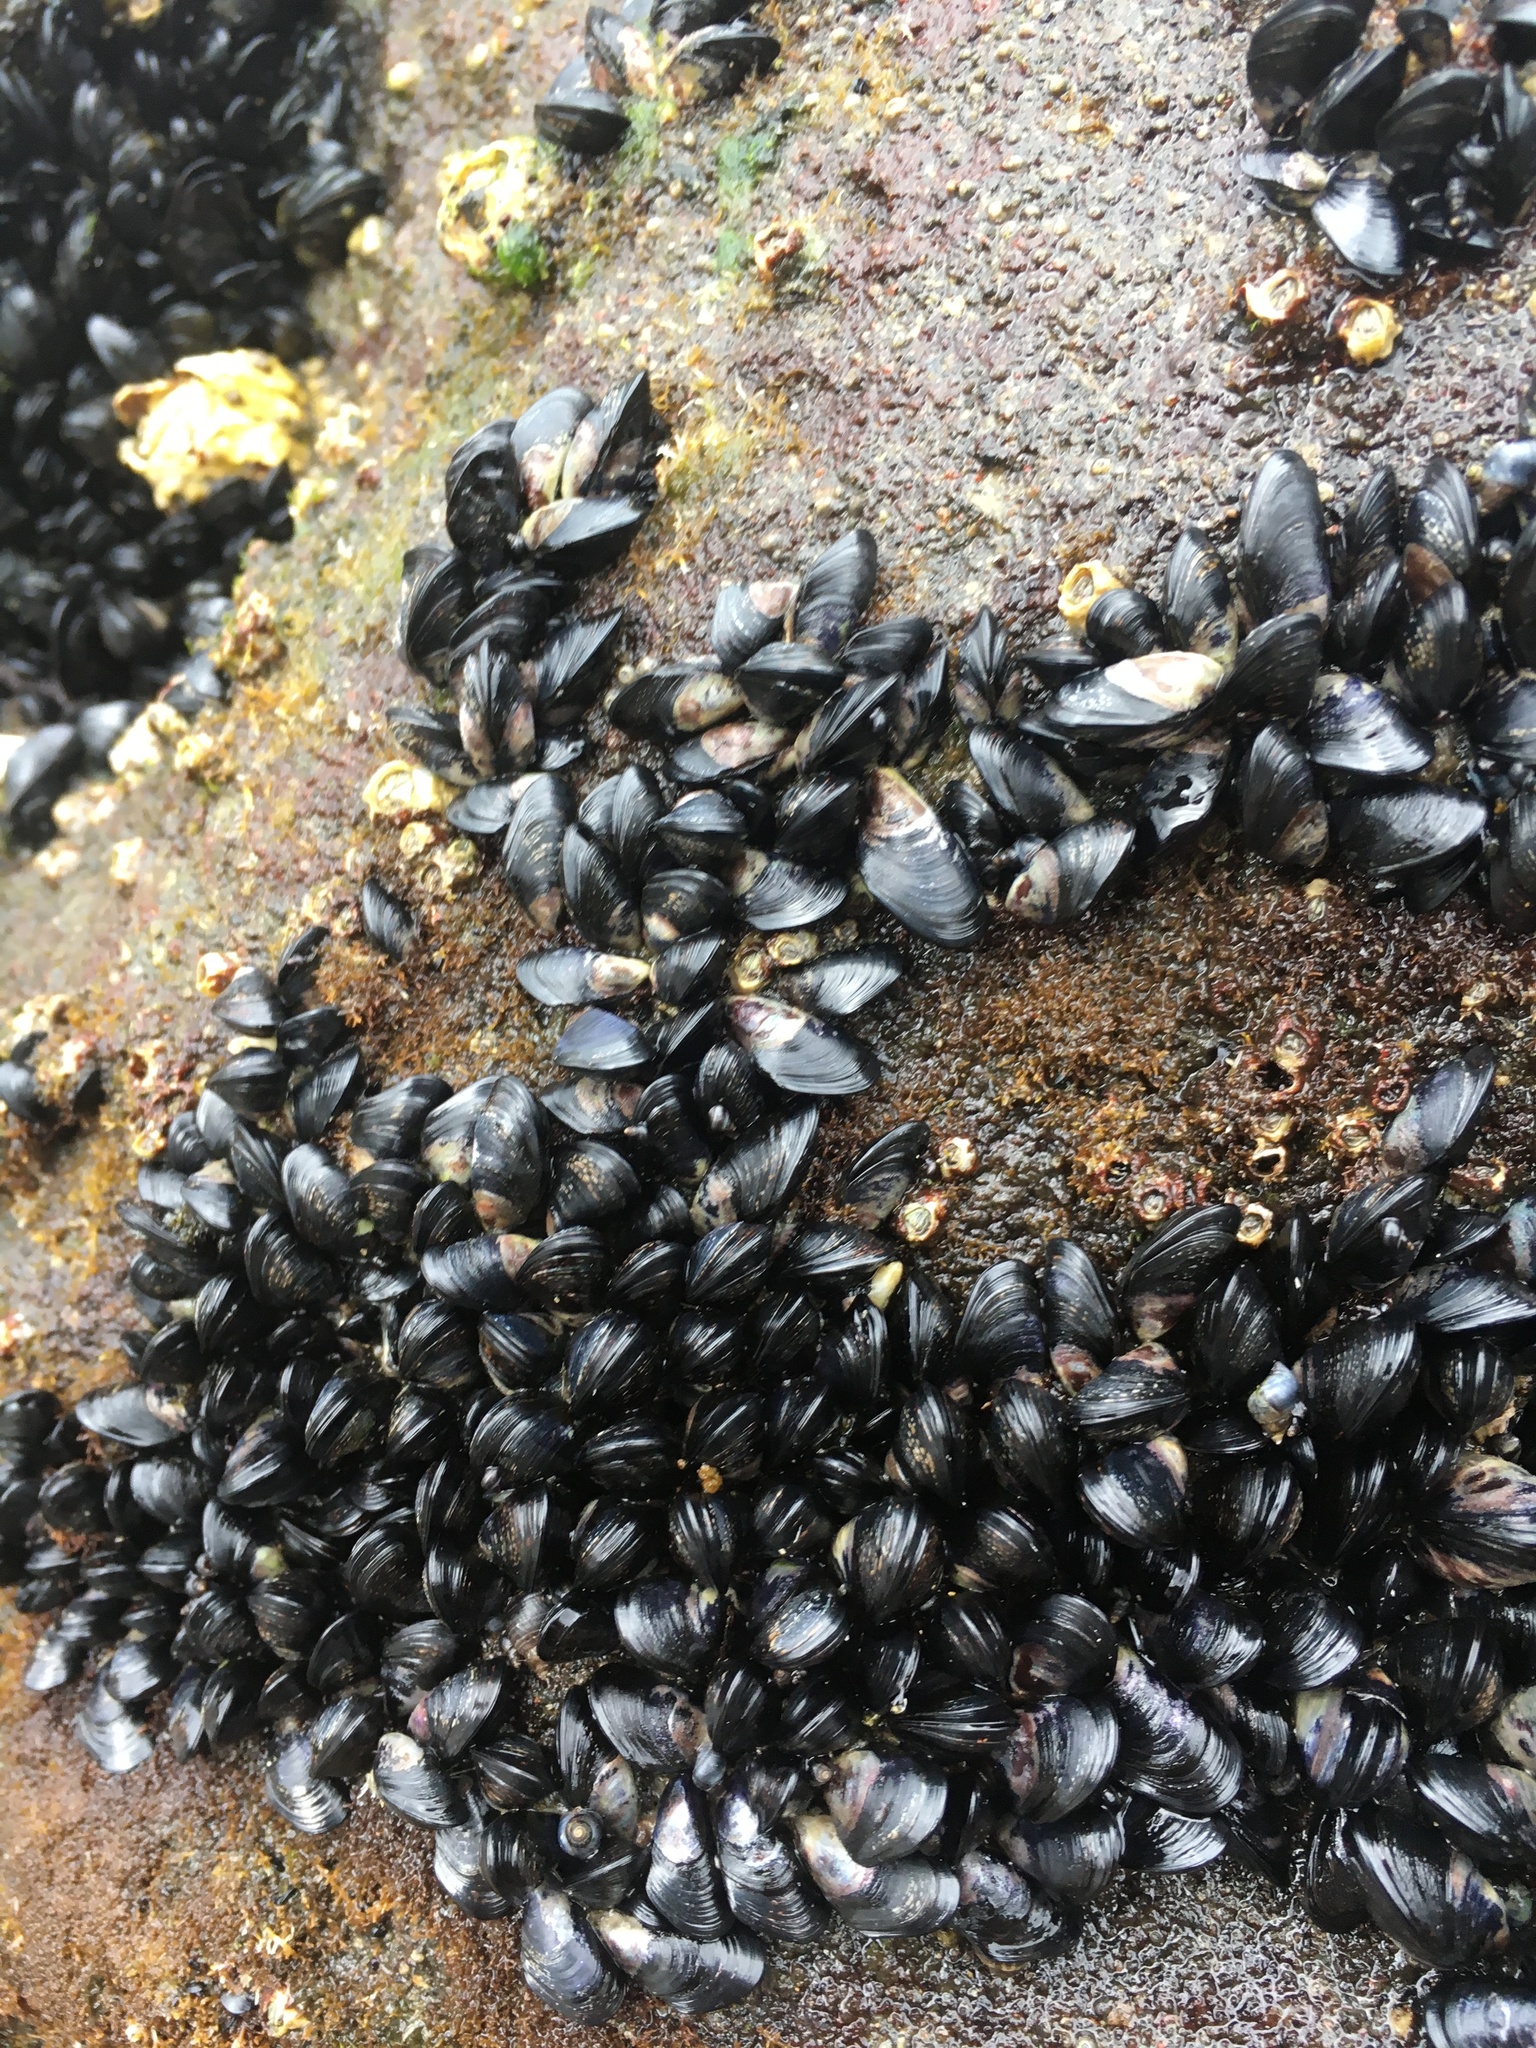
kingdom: Animalia
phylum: Mollusca
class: Bivalvia
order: Mytilida
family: Mytilidae
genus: Xenostrobus
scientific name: Xenostrobus neozelanicus
